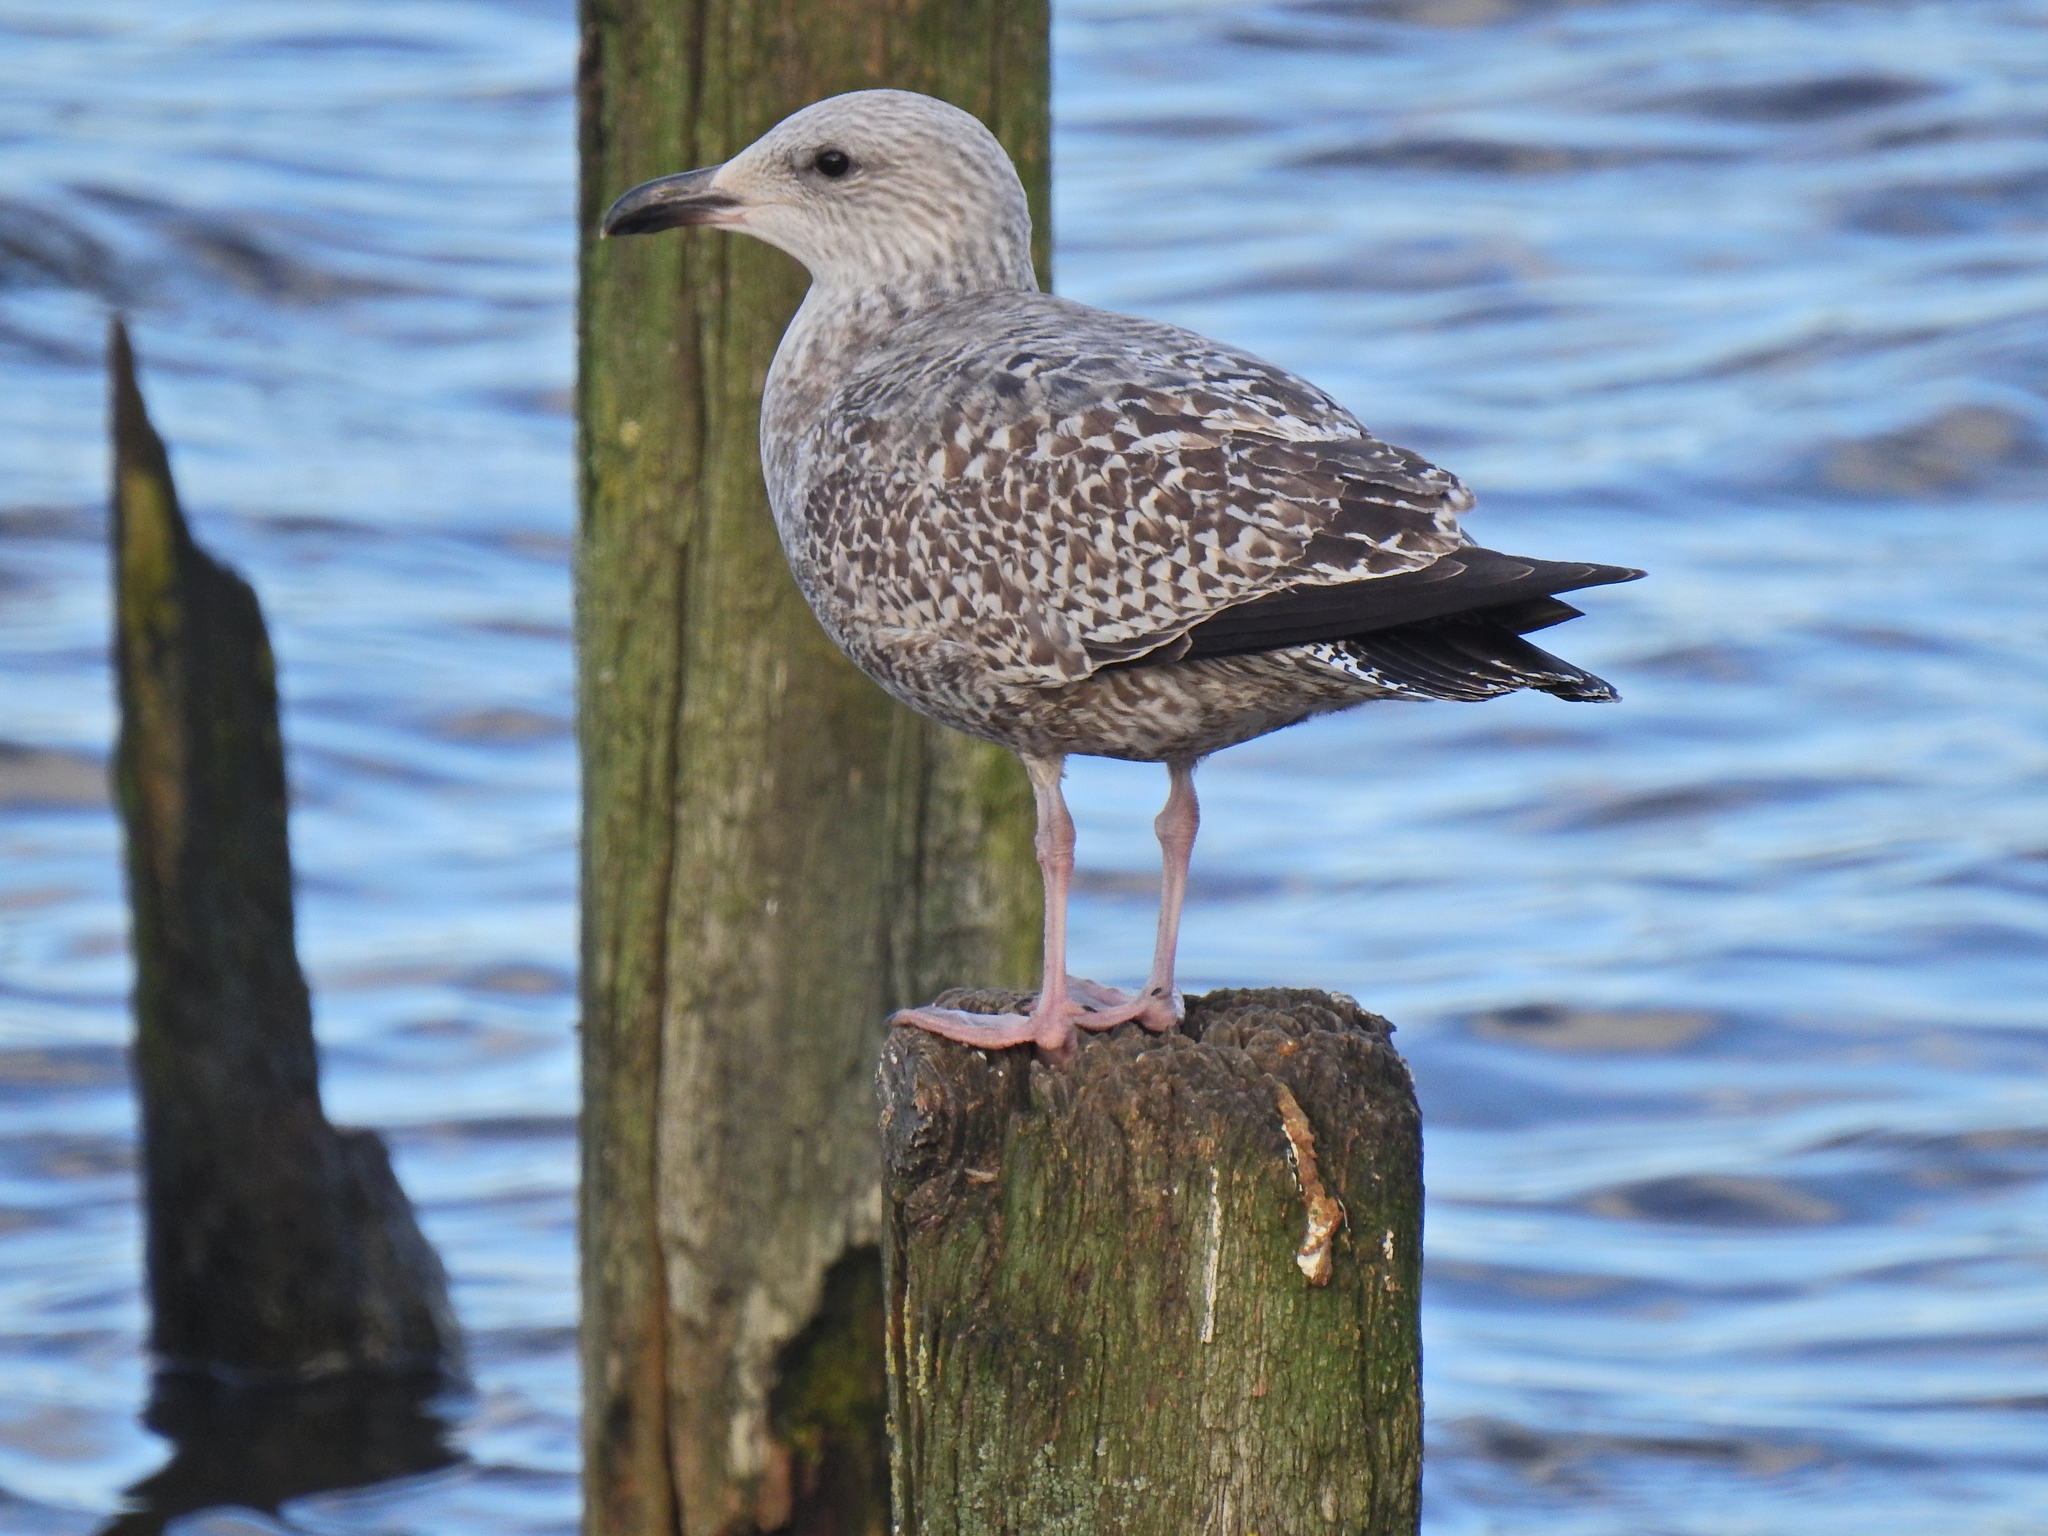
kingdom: Animalia
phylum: Chordata
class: Aves
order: Charadriiformes
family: Laridae
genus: Larus
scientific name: Larus argentatus
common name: Herring gull
